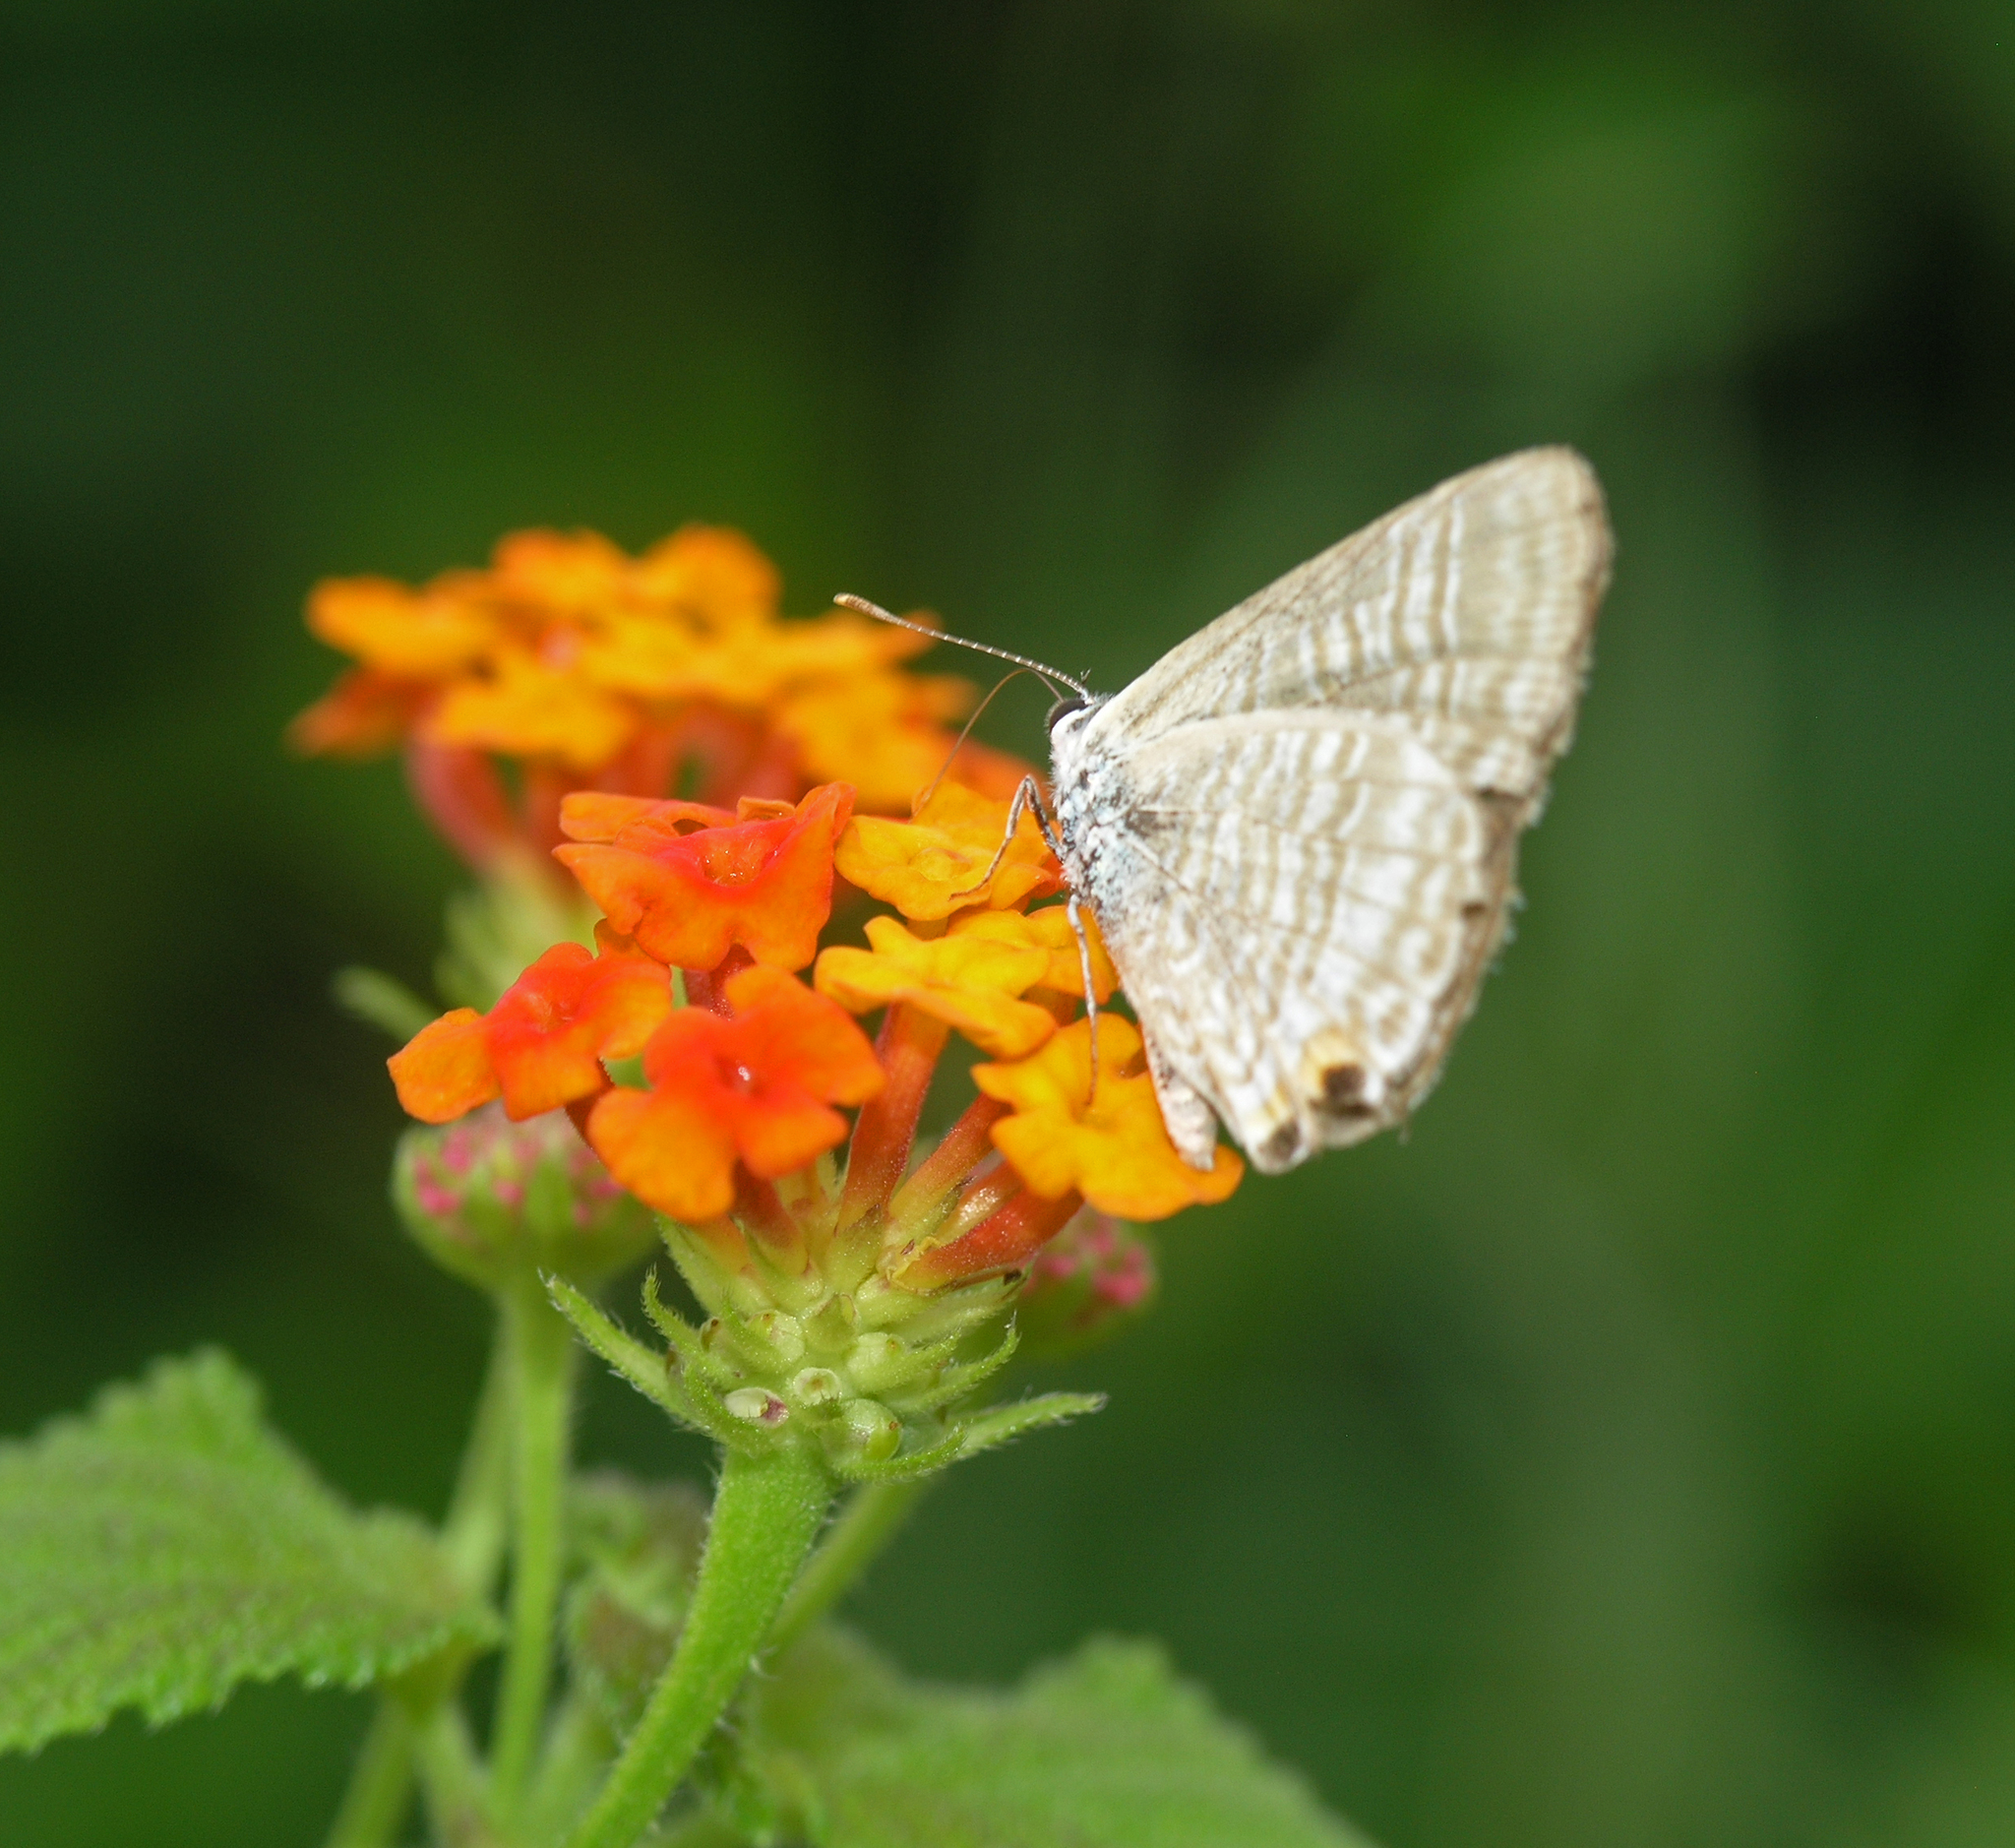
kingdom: Animalia
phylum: Arthropoda
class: Insecta
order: Lepidoptera
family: Lycaenidae
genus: Lampides
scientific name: Lampides boeticus
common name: Long-tailed blue
